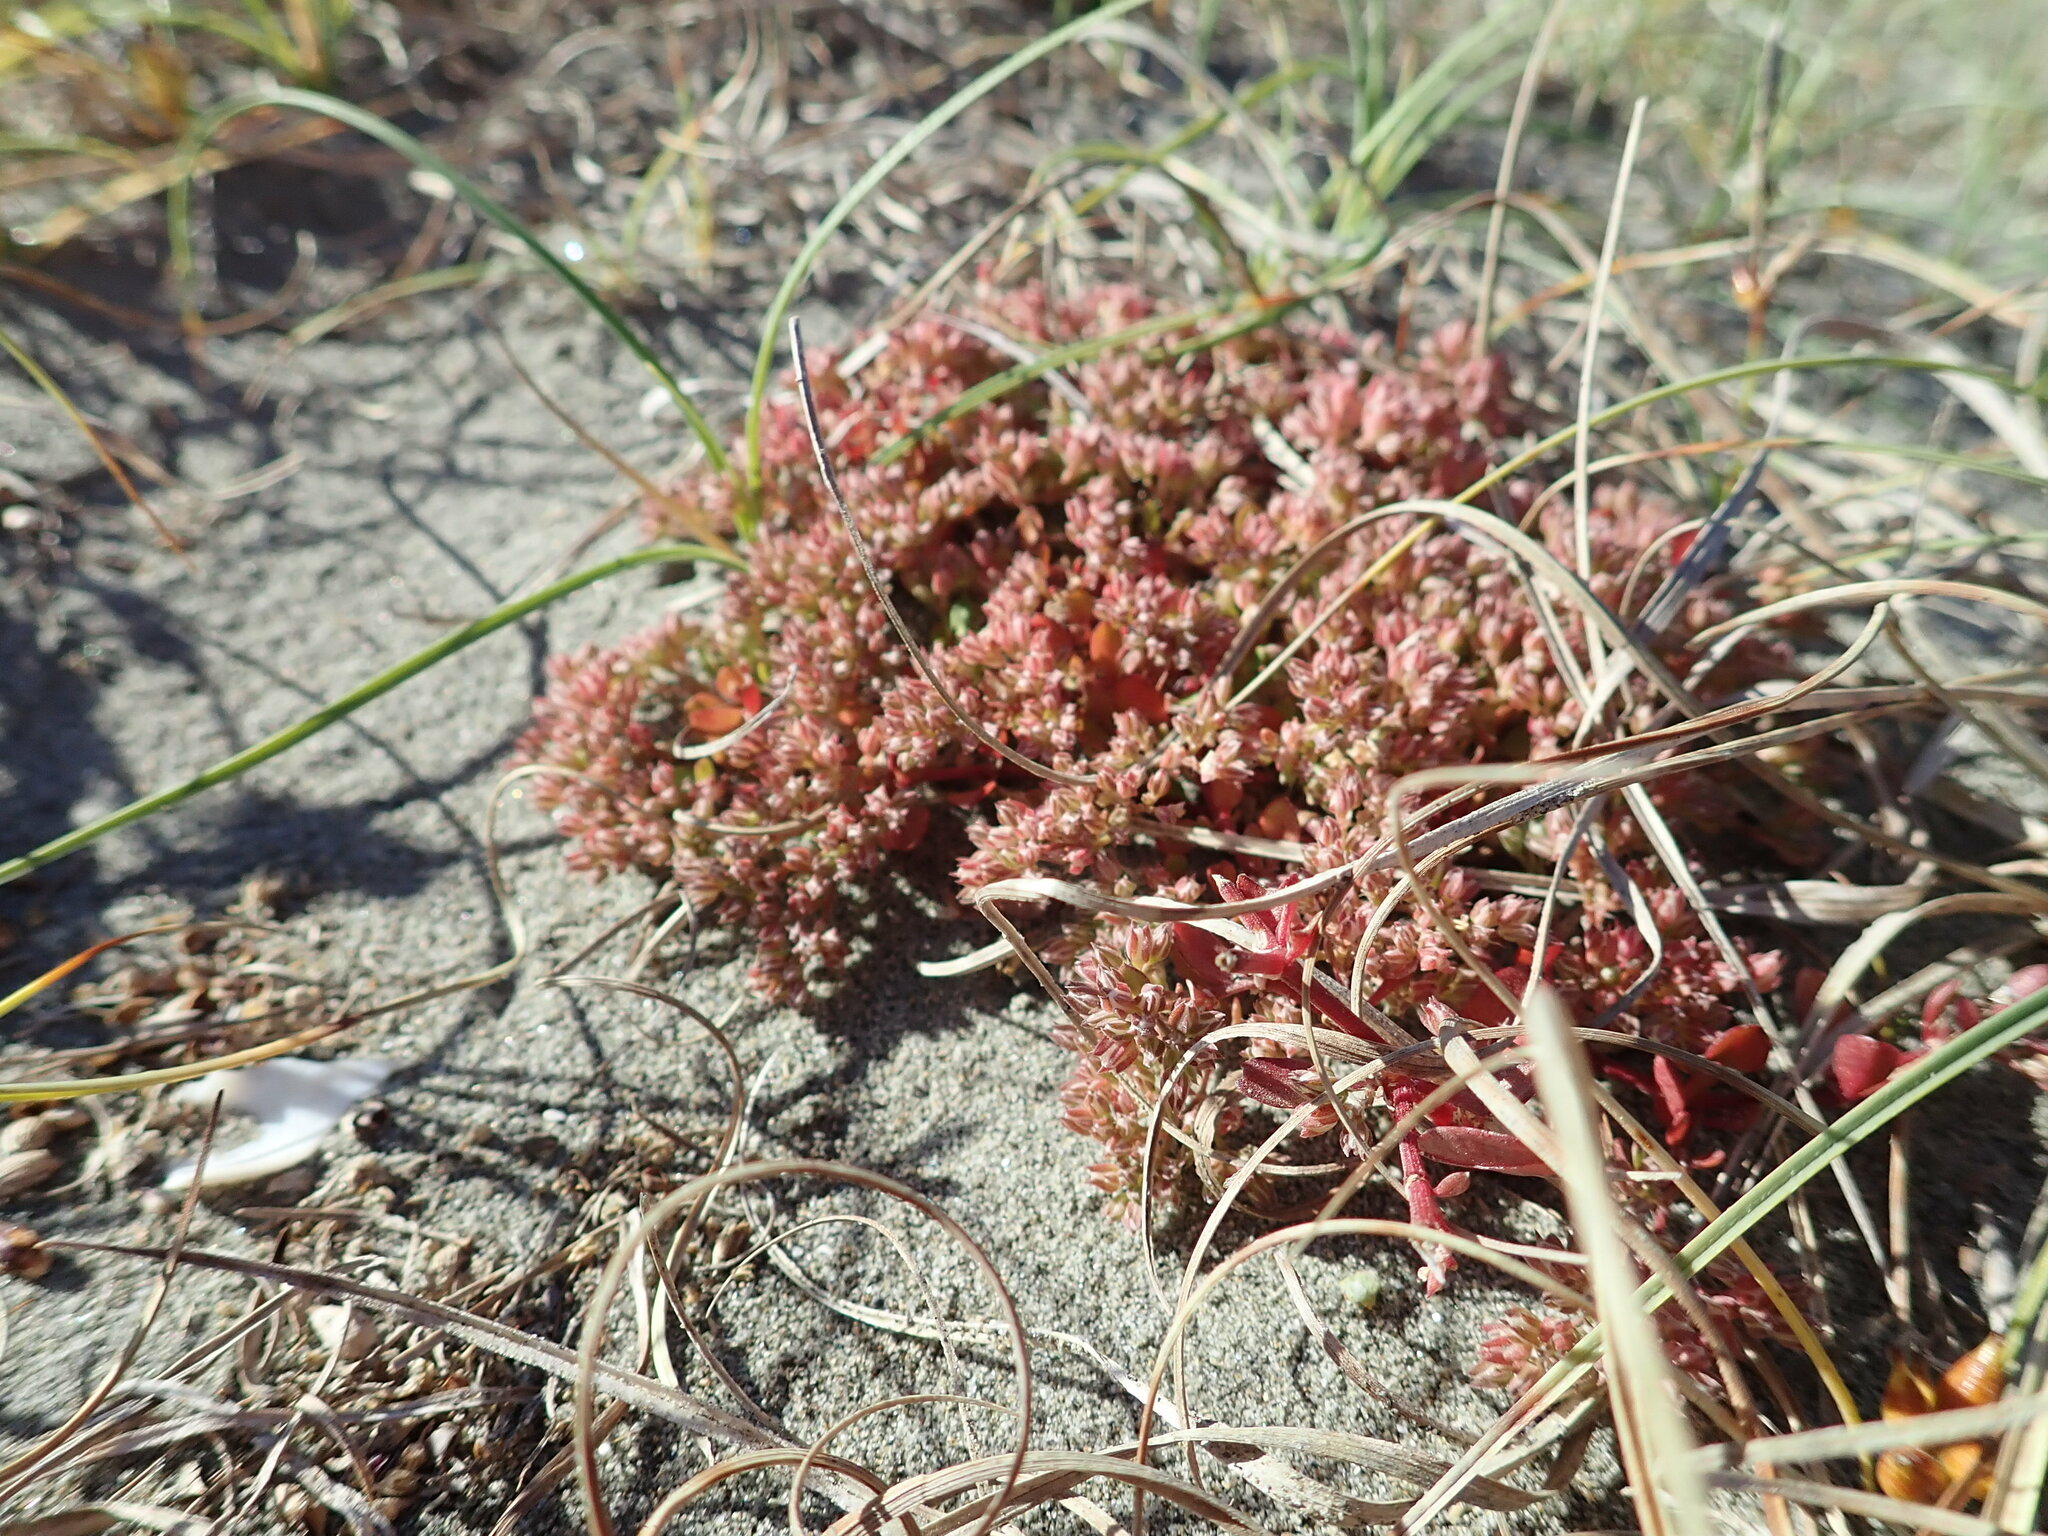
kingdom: Plantae
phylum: Tracheophyta
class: Magnoliopsida
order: Caryophyllales
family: Caryophyllaceae
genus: Polycarpon
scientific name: Polycarpon tetraphyllum
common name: Four-leaved all-seed
